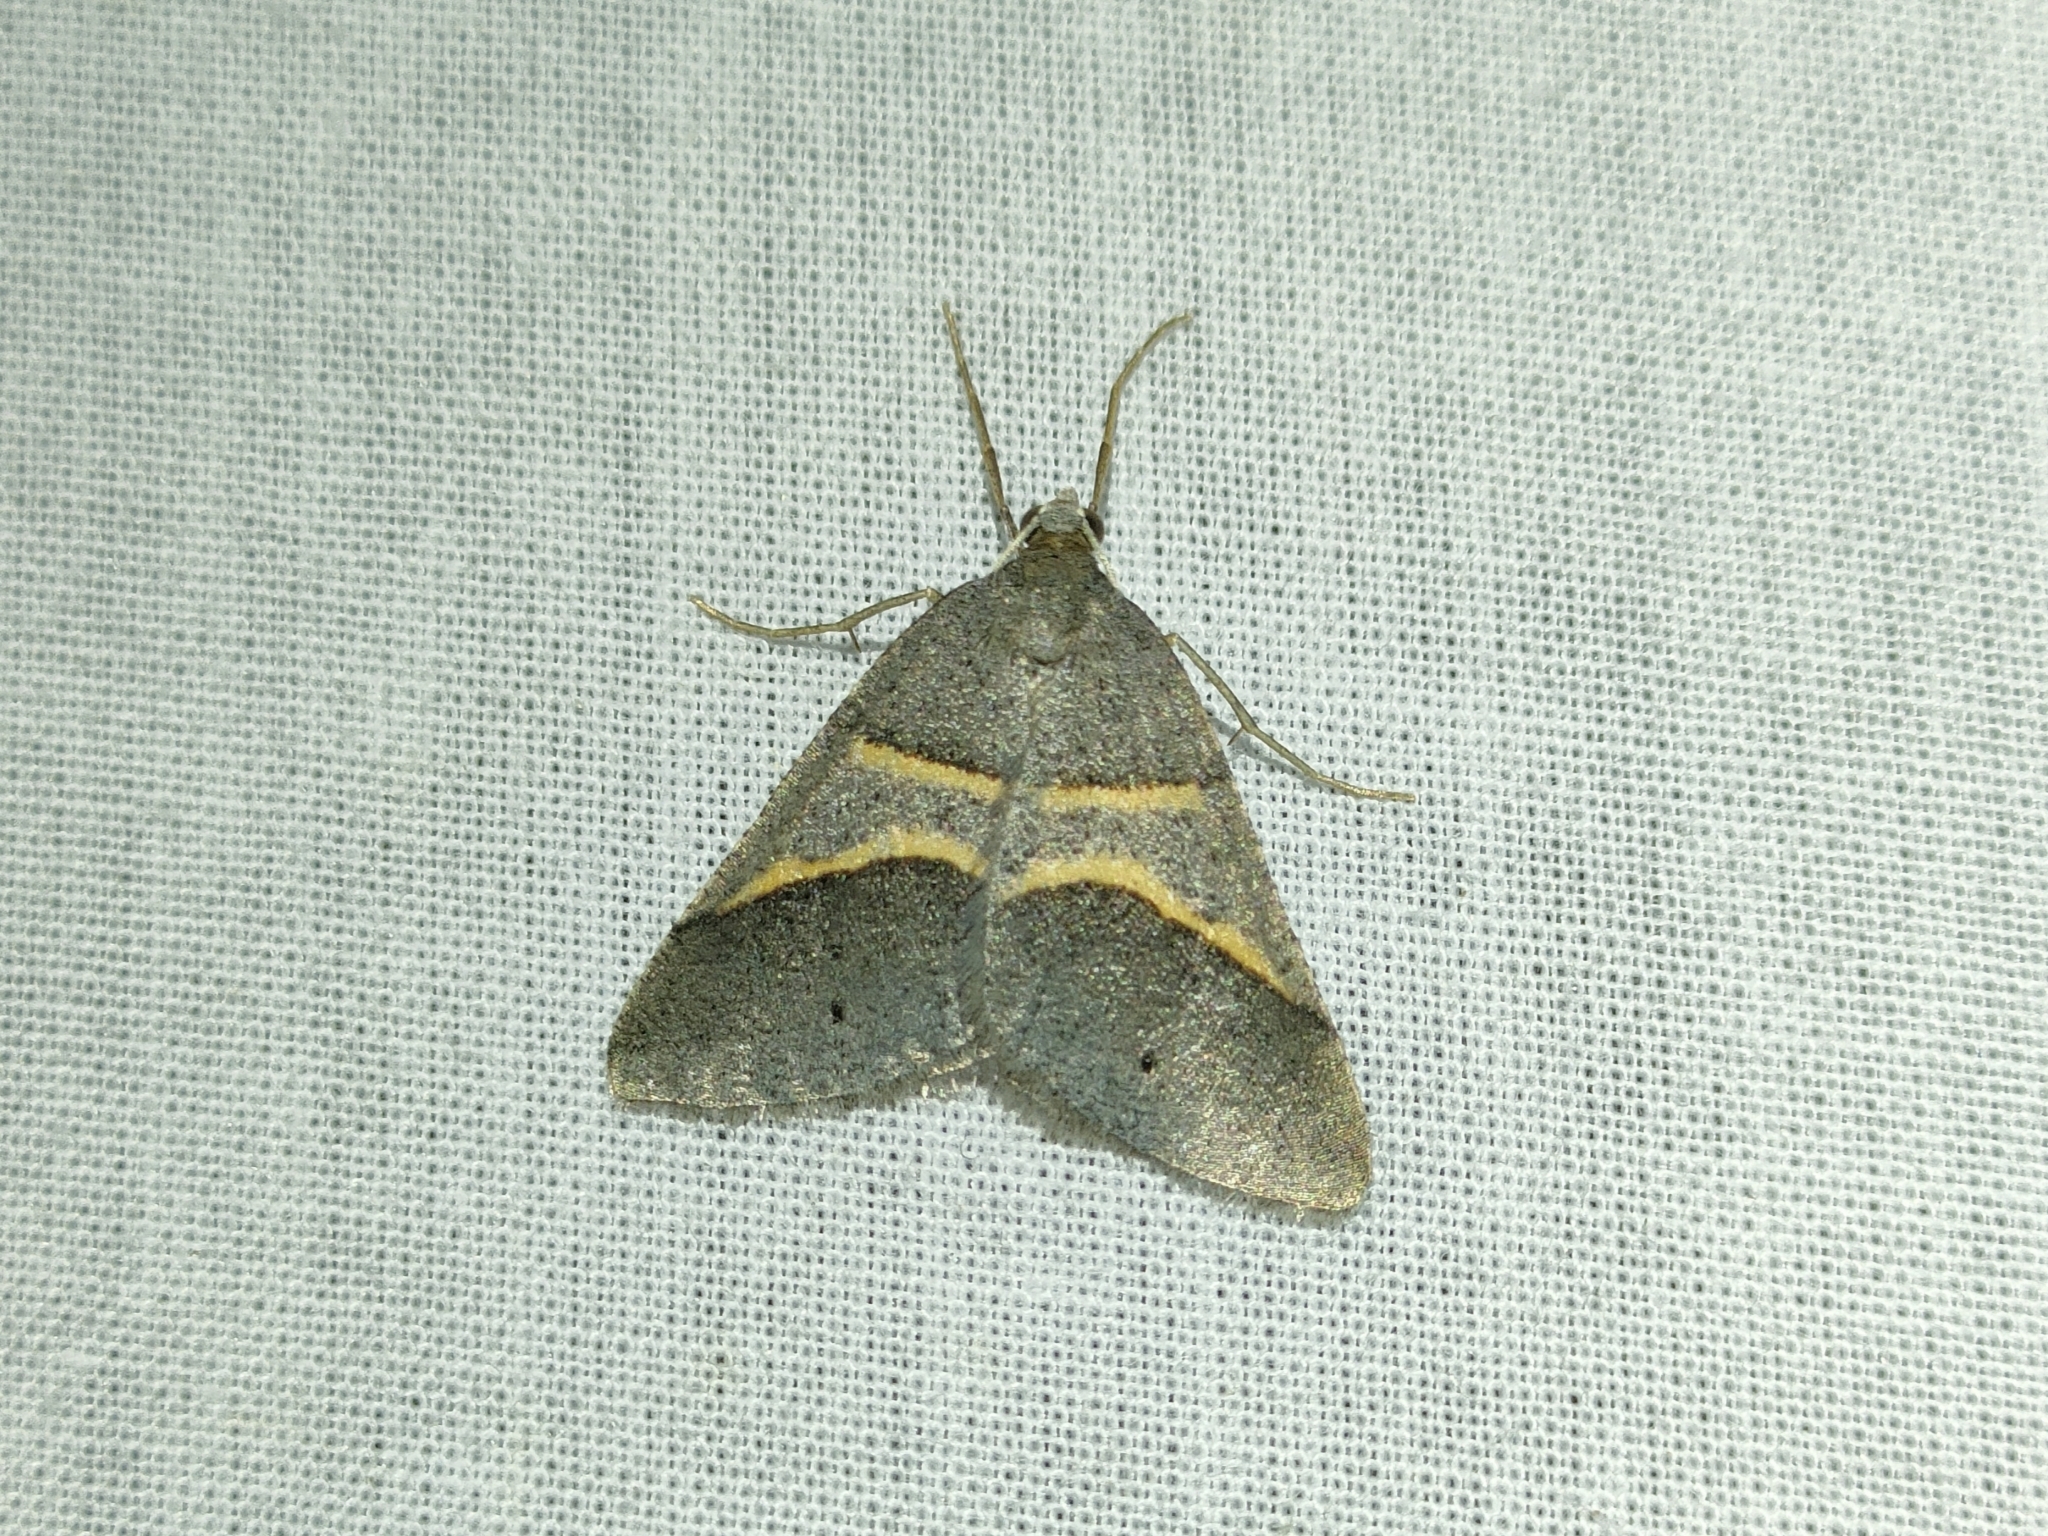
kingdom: Animalia
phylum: Arthropoda
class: Insecta
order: Lepidoptera
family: Pterophoridae
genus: Pterophorus
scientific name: Pterophorus Petrophora convergata
